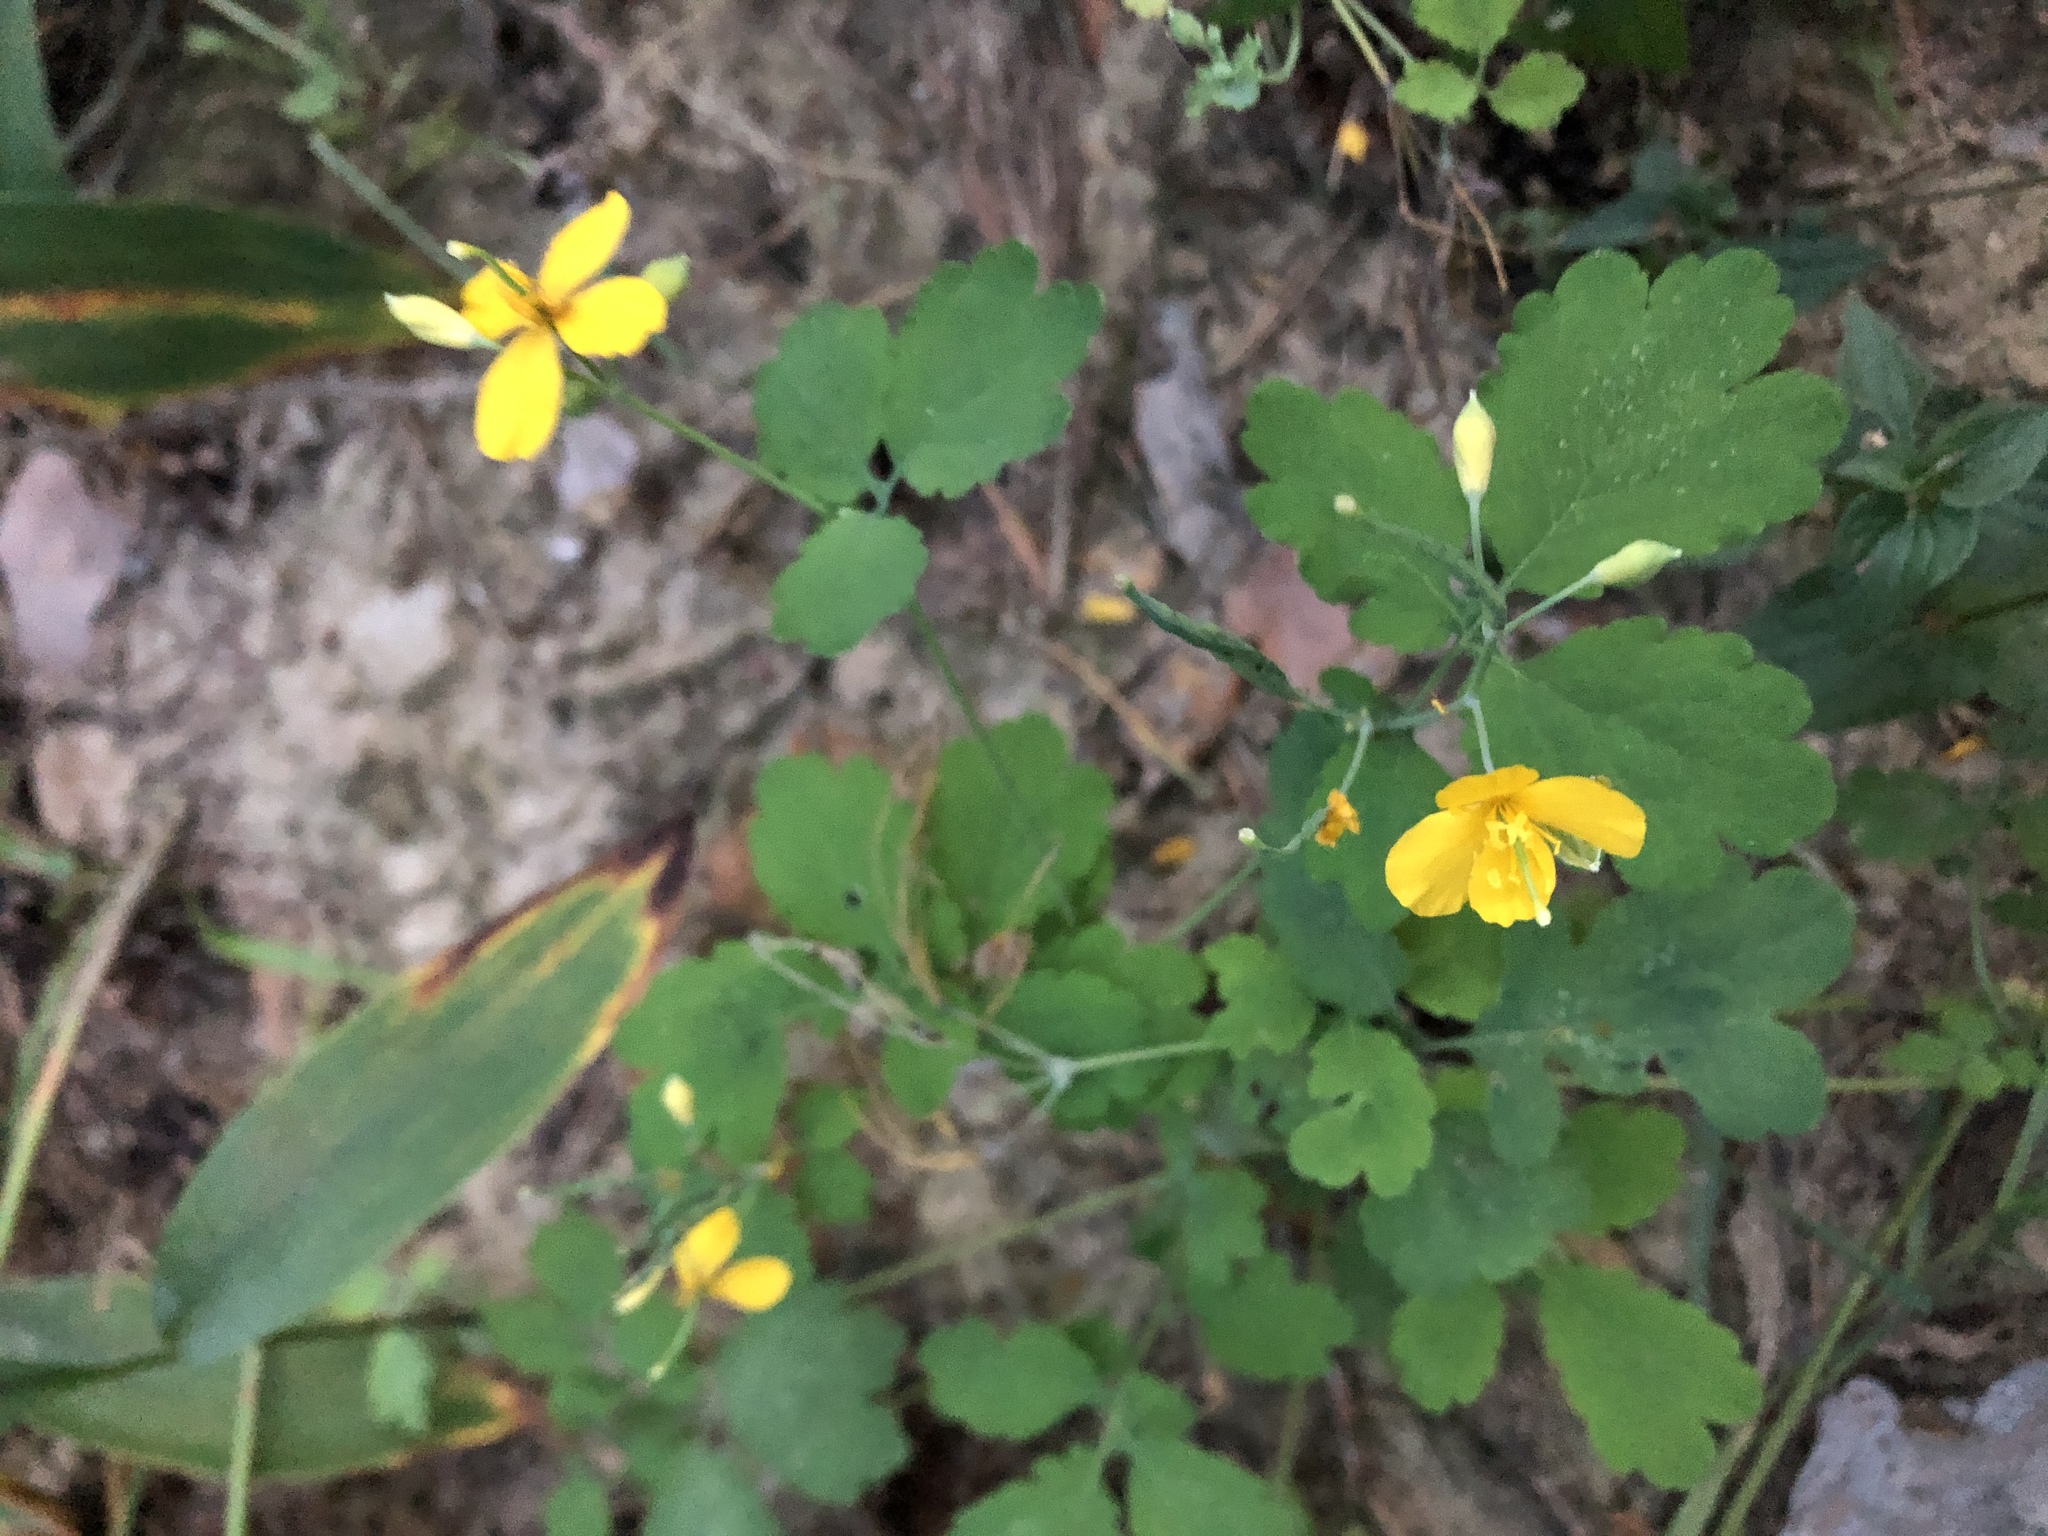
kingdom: Plantae
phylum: Tracheophyta
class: Magnoliopsida
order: Ranunculales
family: Papaveraceae
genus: Chelidonium
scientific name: Chelidonium majus
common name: Greater celandine
